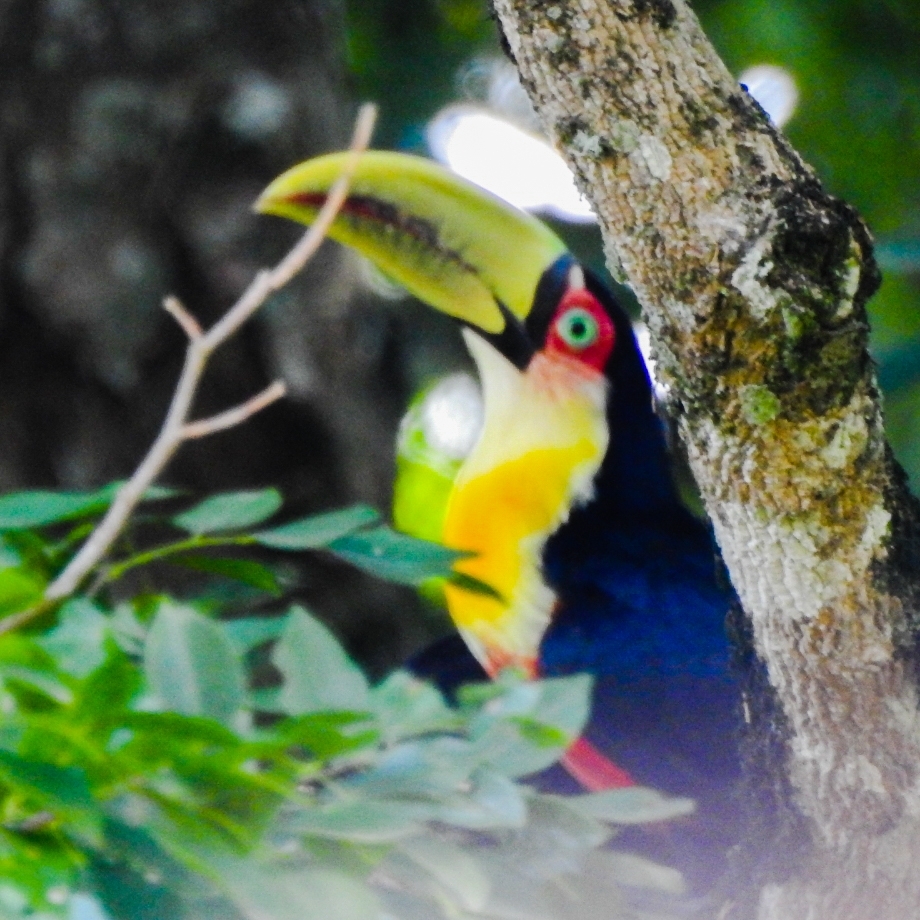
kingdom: Animalia
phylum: Chordata
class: Aves
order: Piciformes
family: Ramphastidae
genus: Ramphastos
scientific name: Ramphastos dicolorus
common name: Green-billed toucan
